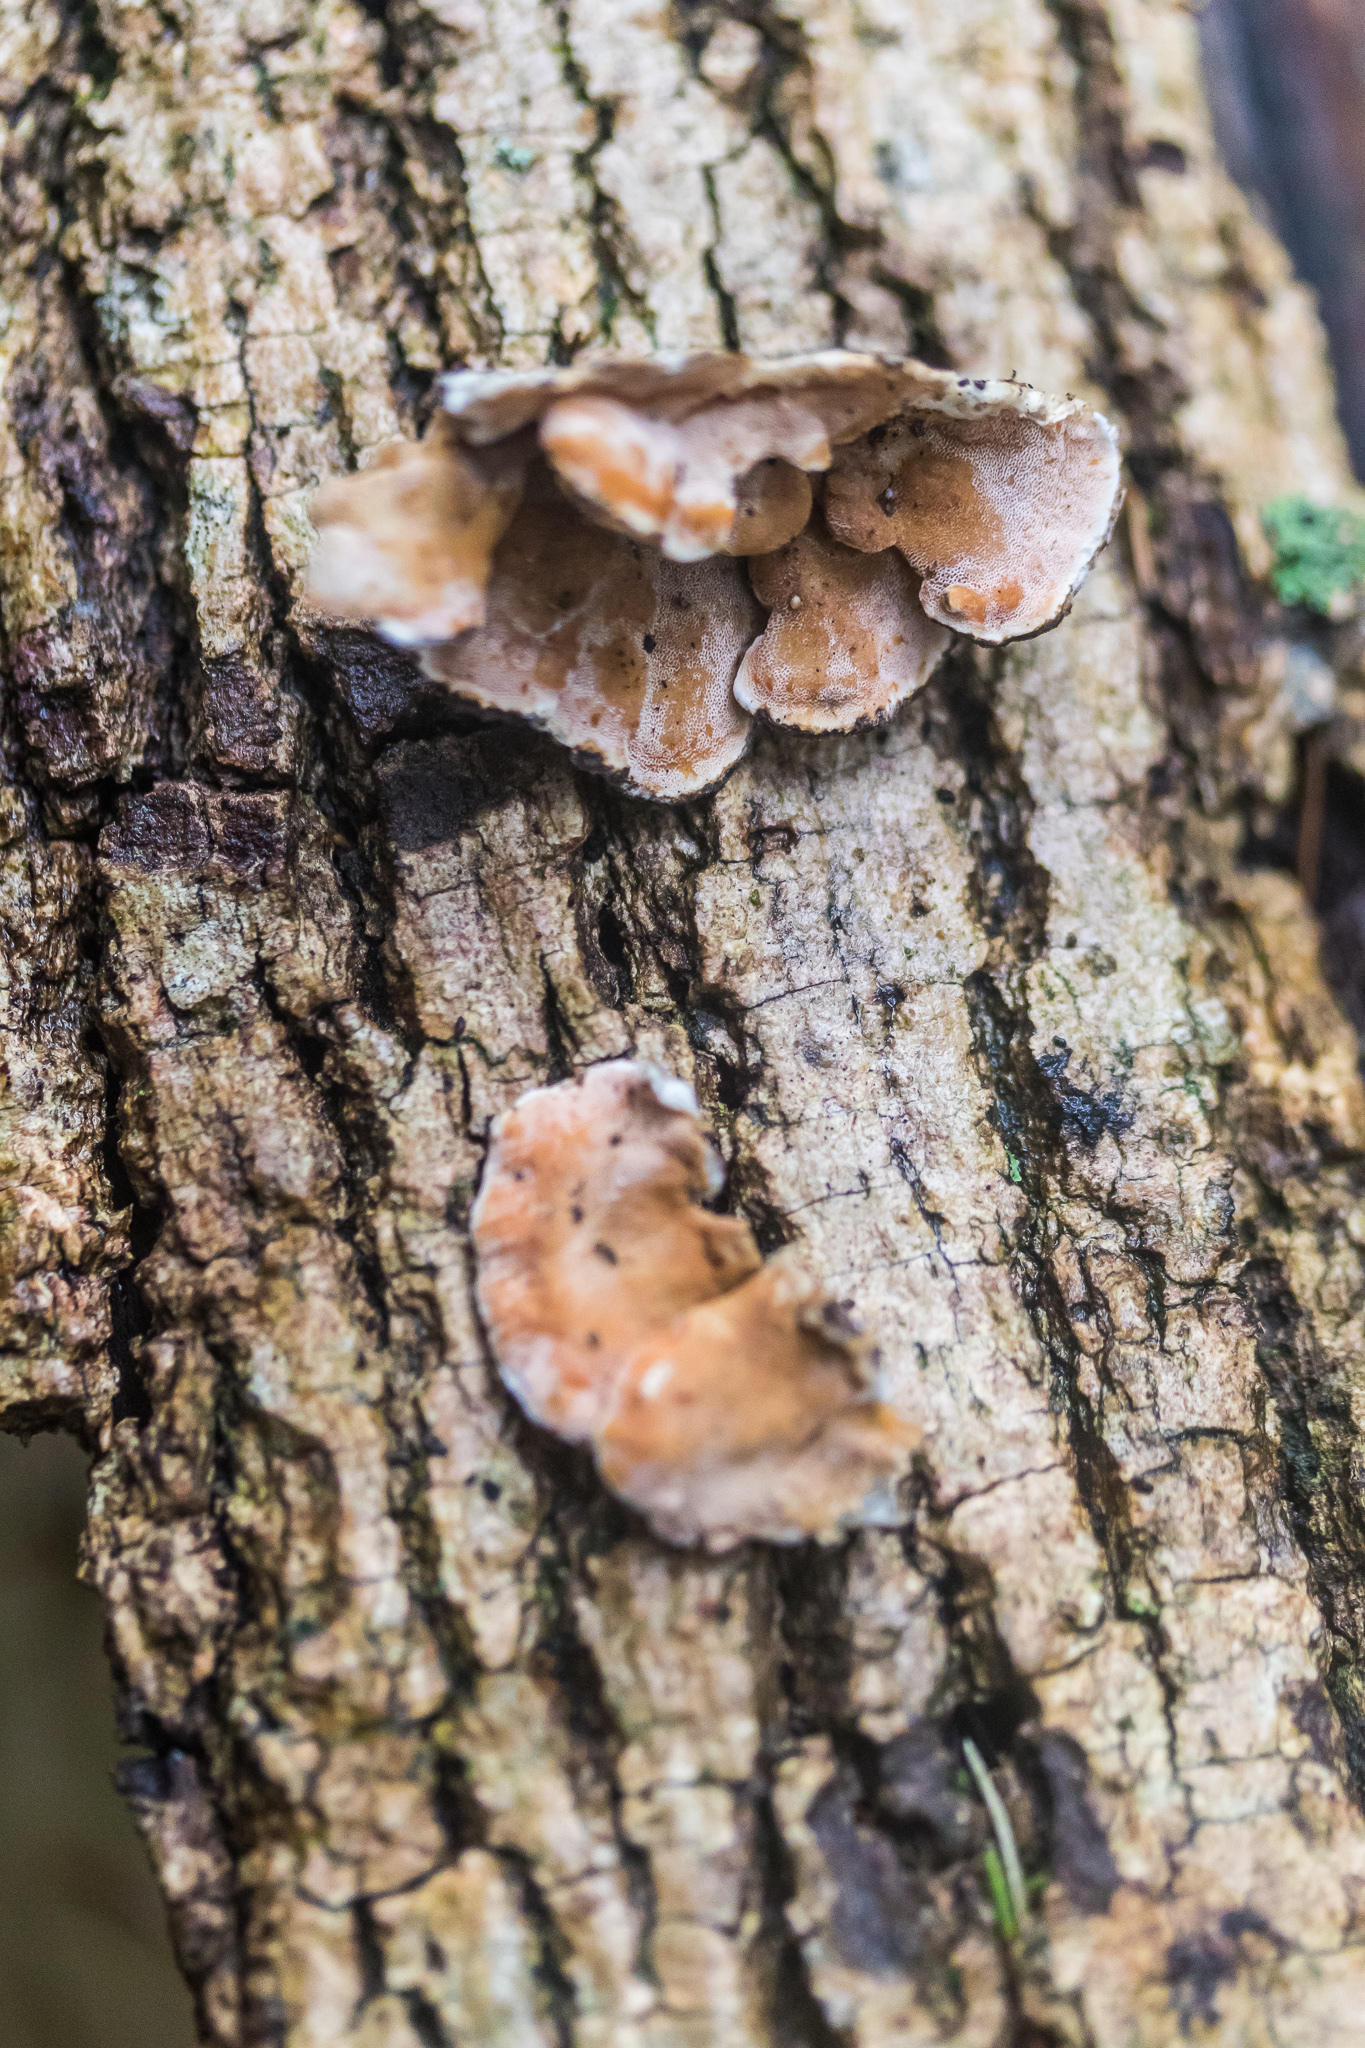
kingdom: Fungi
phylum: Basidiomycota
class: Agaricomycetes
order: Polyporales
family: Irpicaceae
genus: Vitreoporus
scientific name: Vitreoporus dichrous
